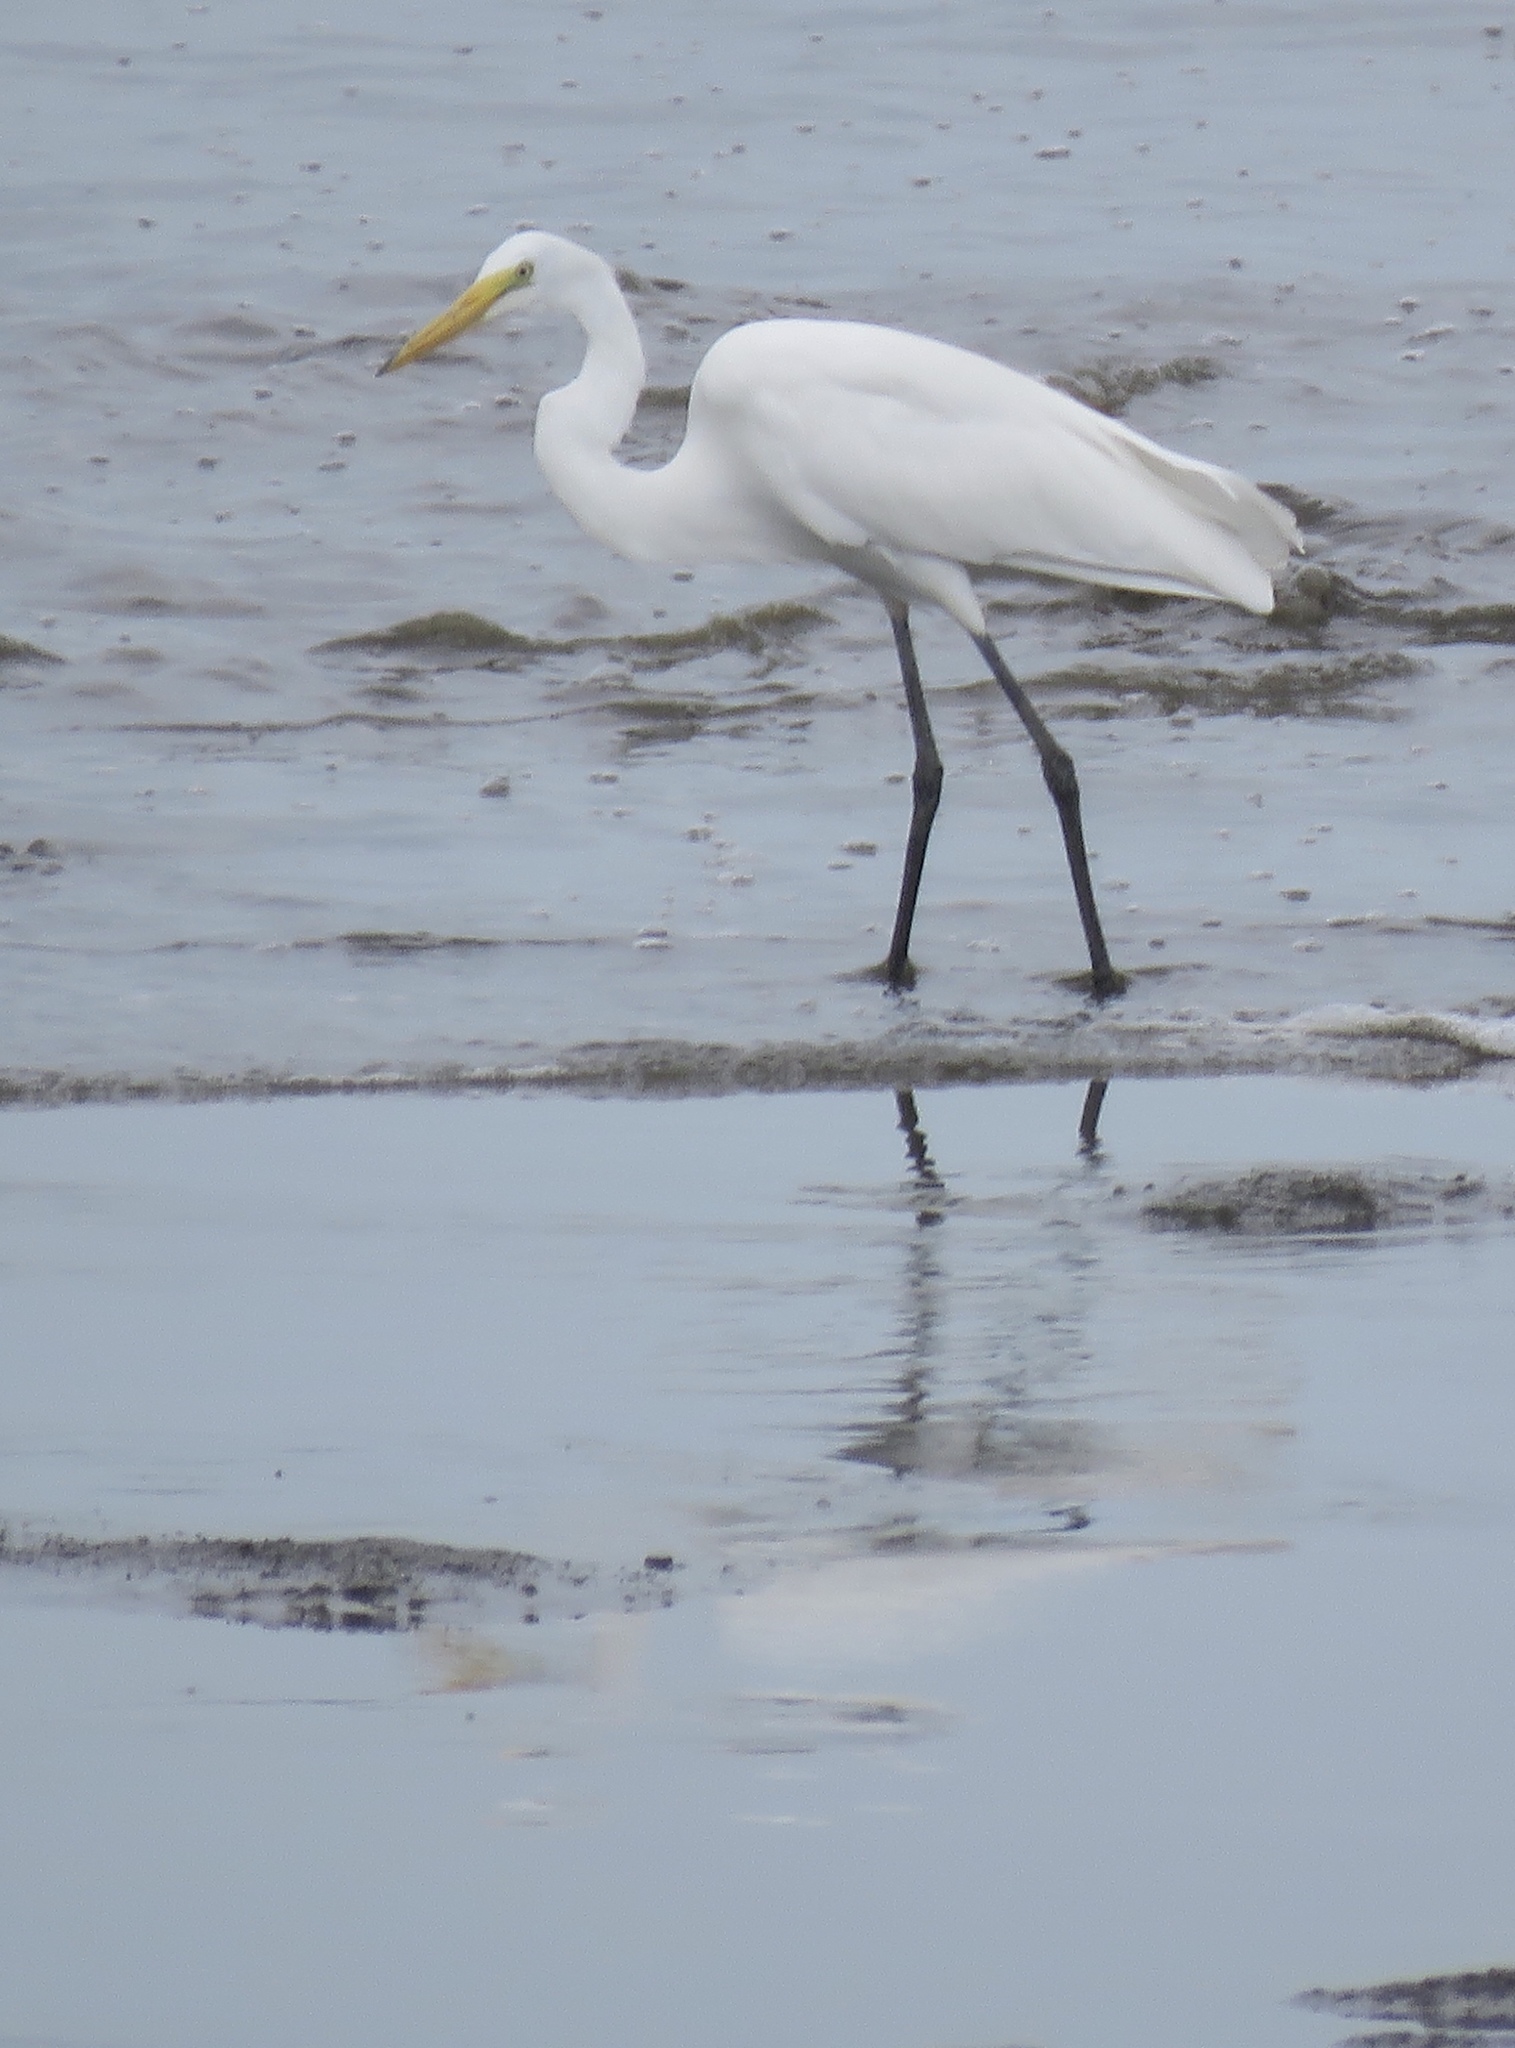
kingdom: Animalia
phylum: Chordata
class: Aves
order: Pelecaniformes
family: Ardeidae
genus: Ardea
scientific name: Ardea alba
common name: Great egret
